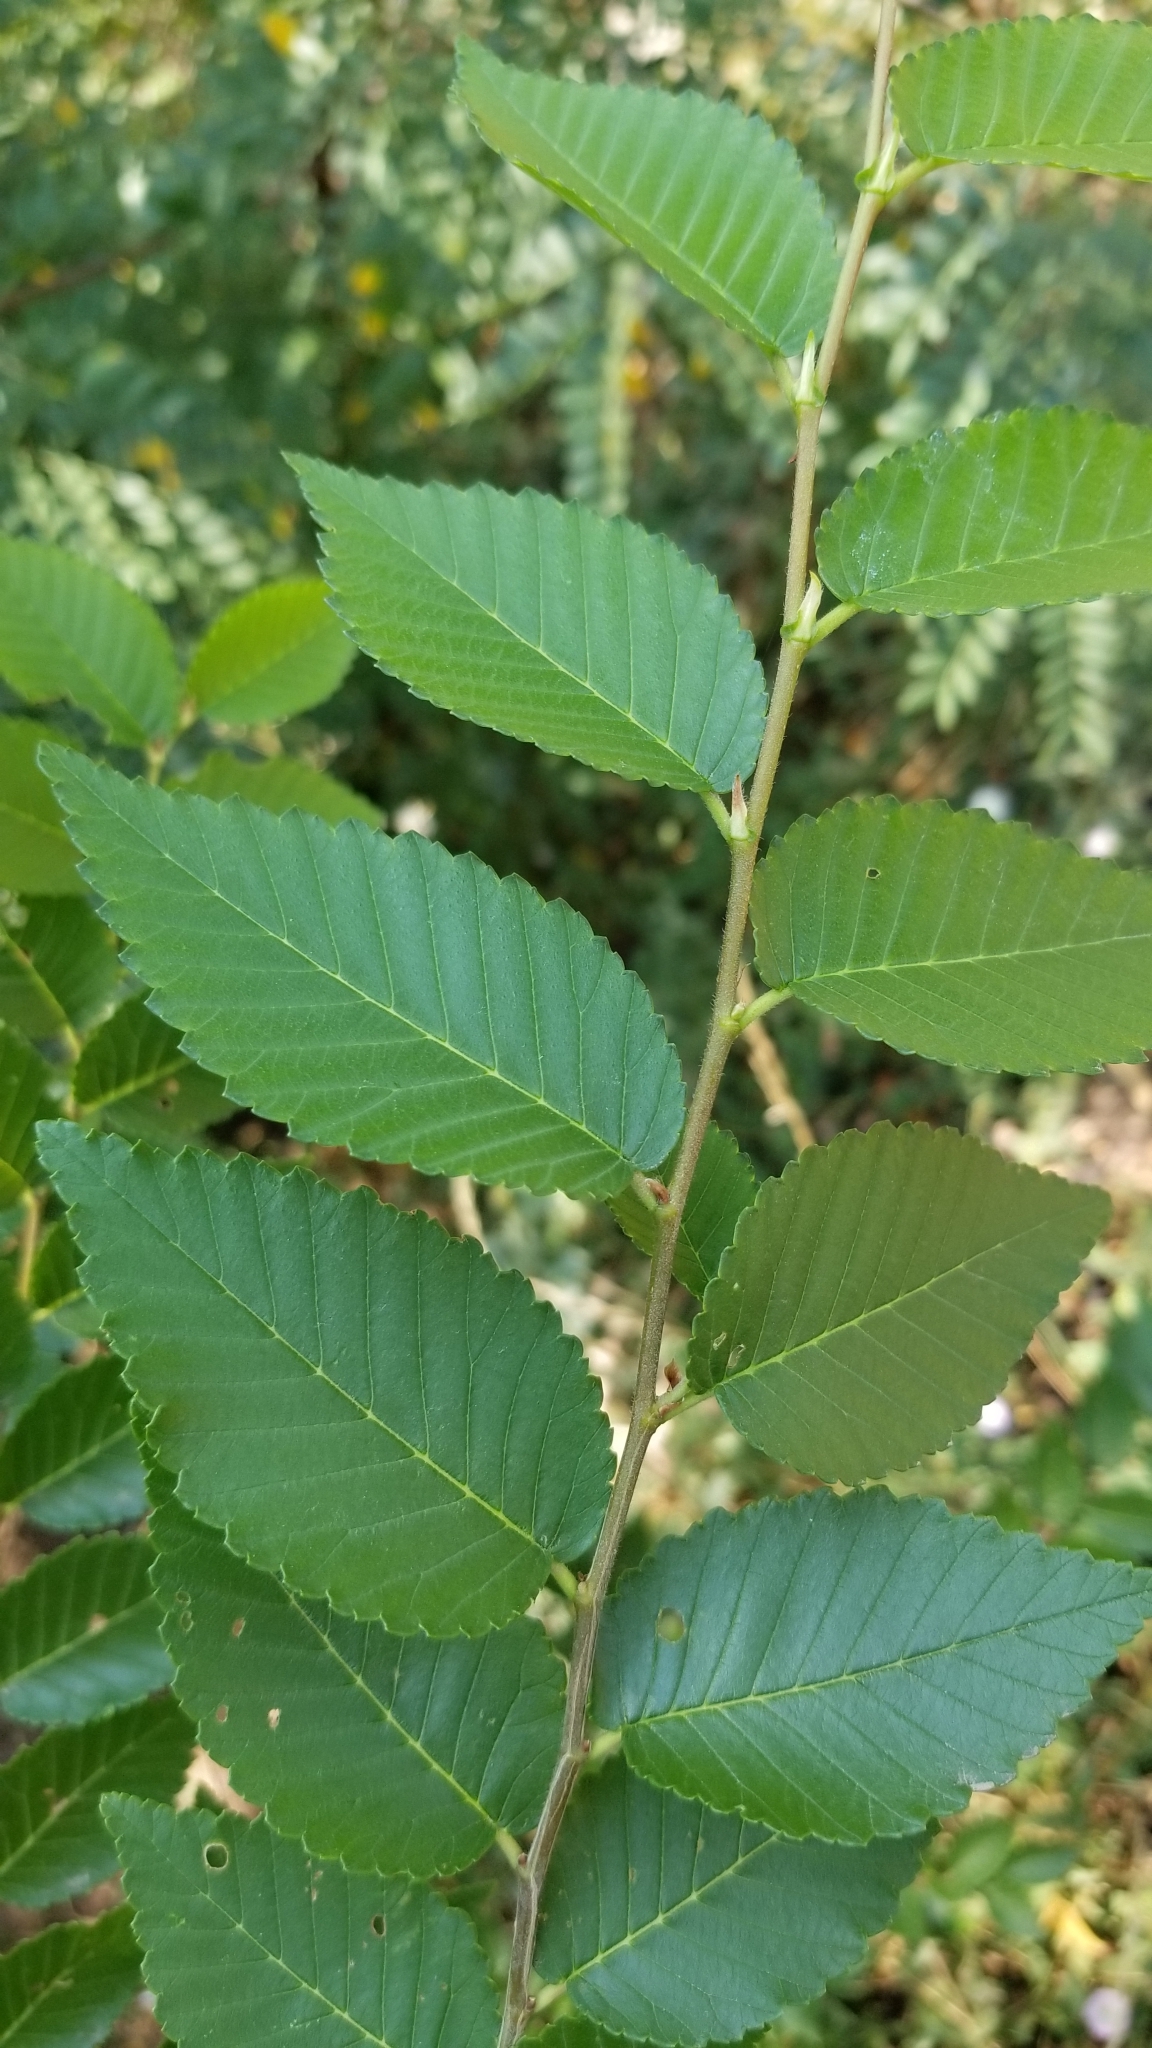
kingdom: Plantae
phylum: Tracheophyta
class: Magnoliopsida
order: Rosales
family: Ulmaceae
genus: Ulmus
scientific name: Ulmus pumila
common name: Siberian elm
